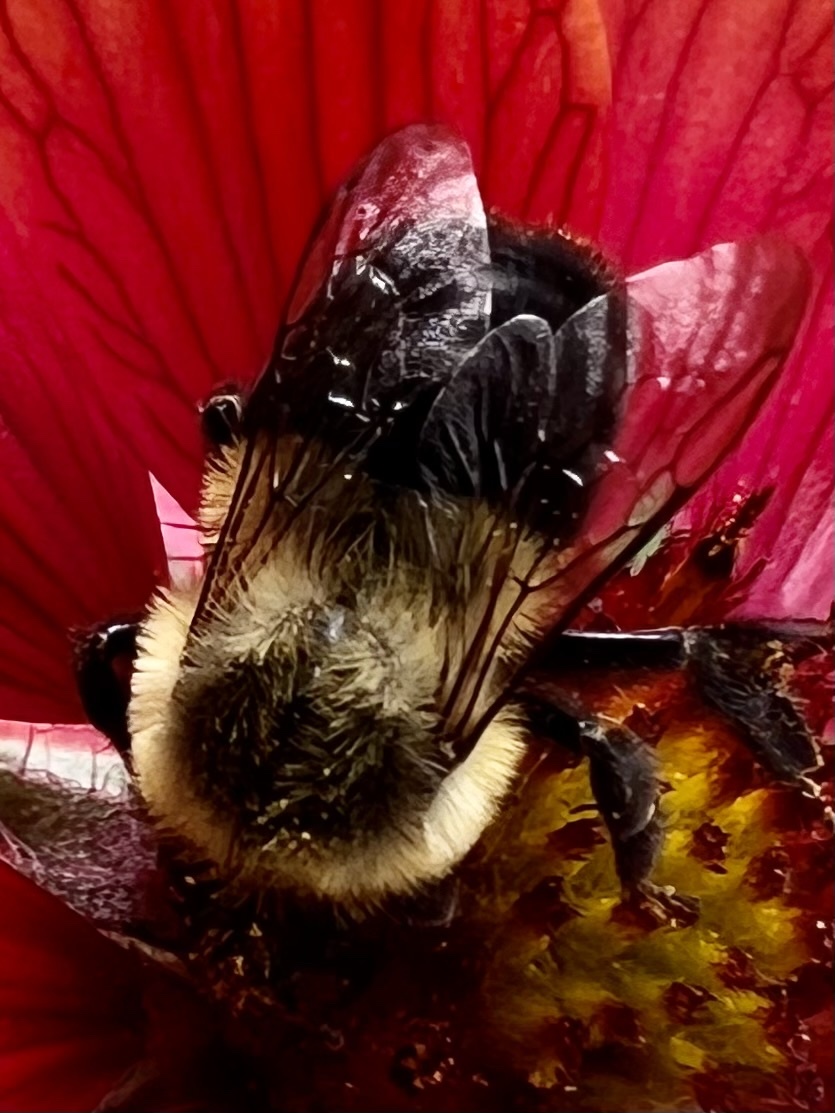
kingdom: Animalia
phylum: Arthropoda
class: Insecta
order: Hymenoptera
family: Apidae
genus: Bombus
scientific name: Bombus impatiens
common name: Common eastern bumble bee
